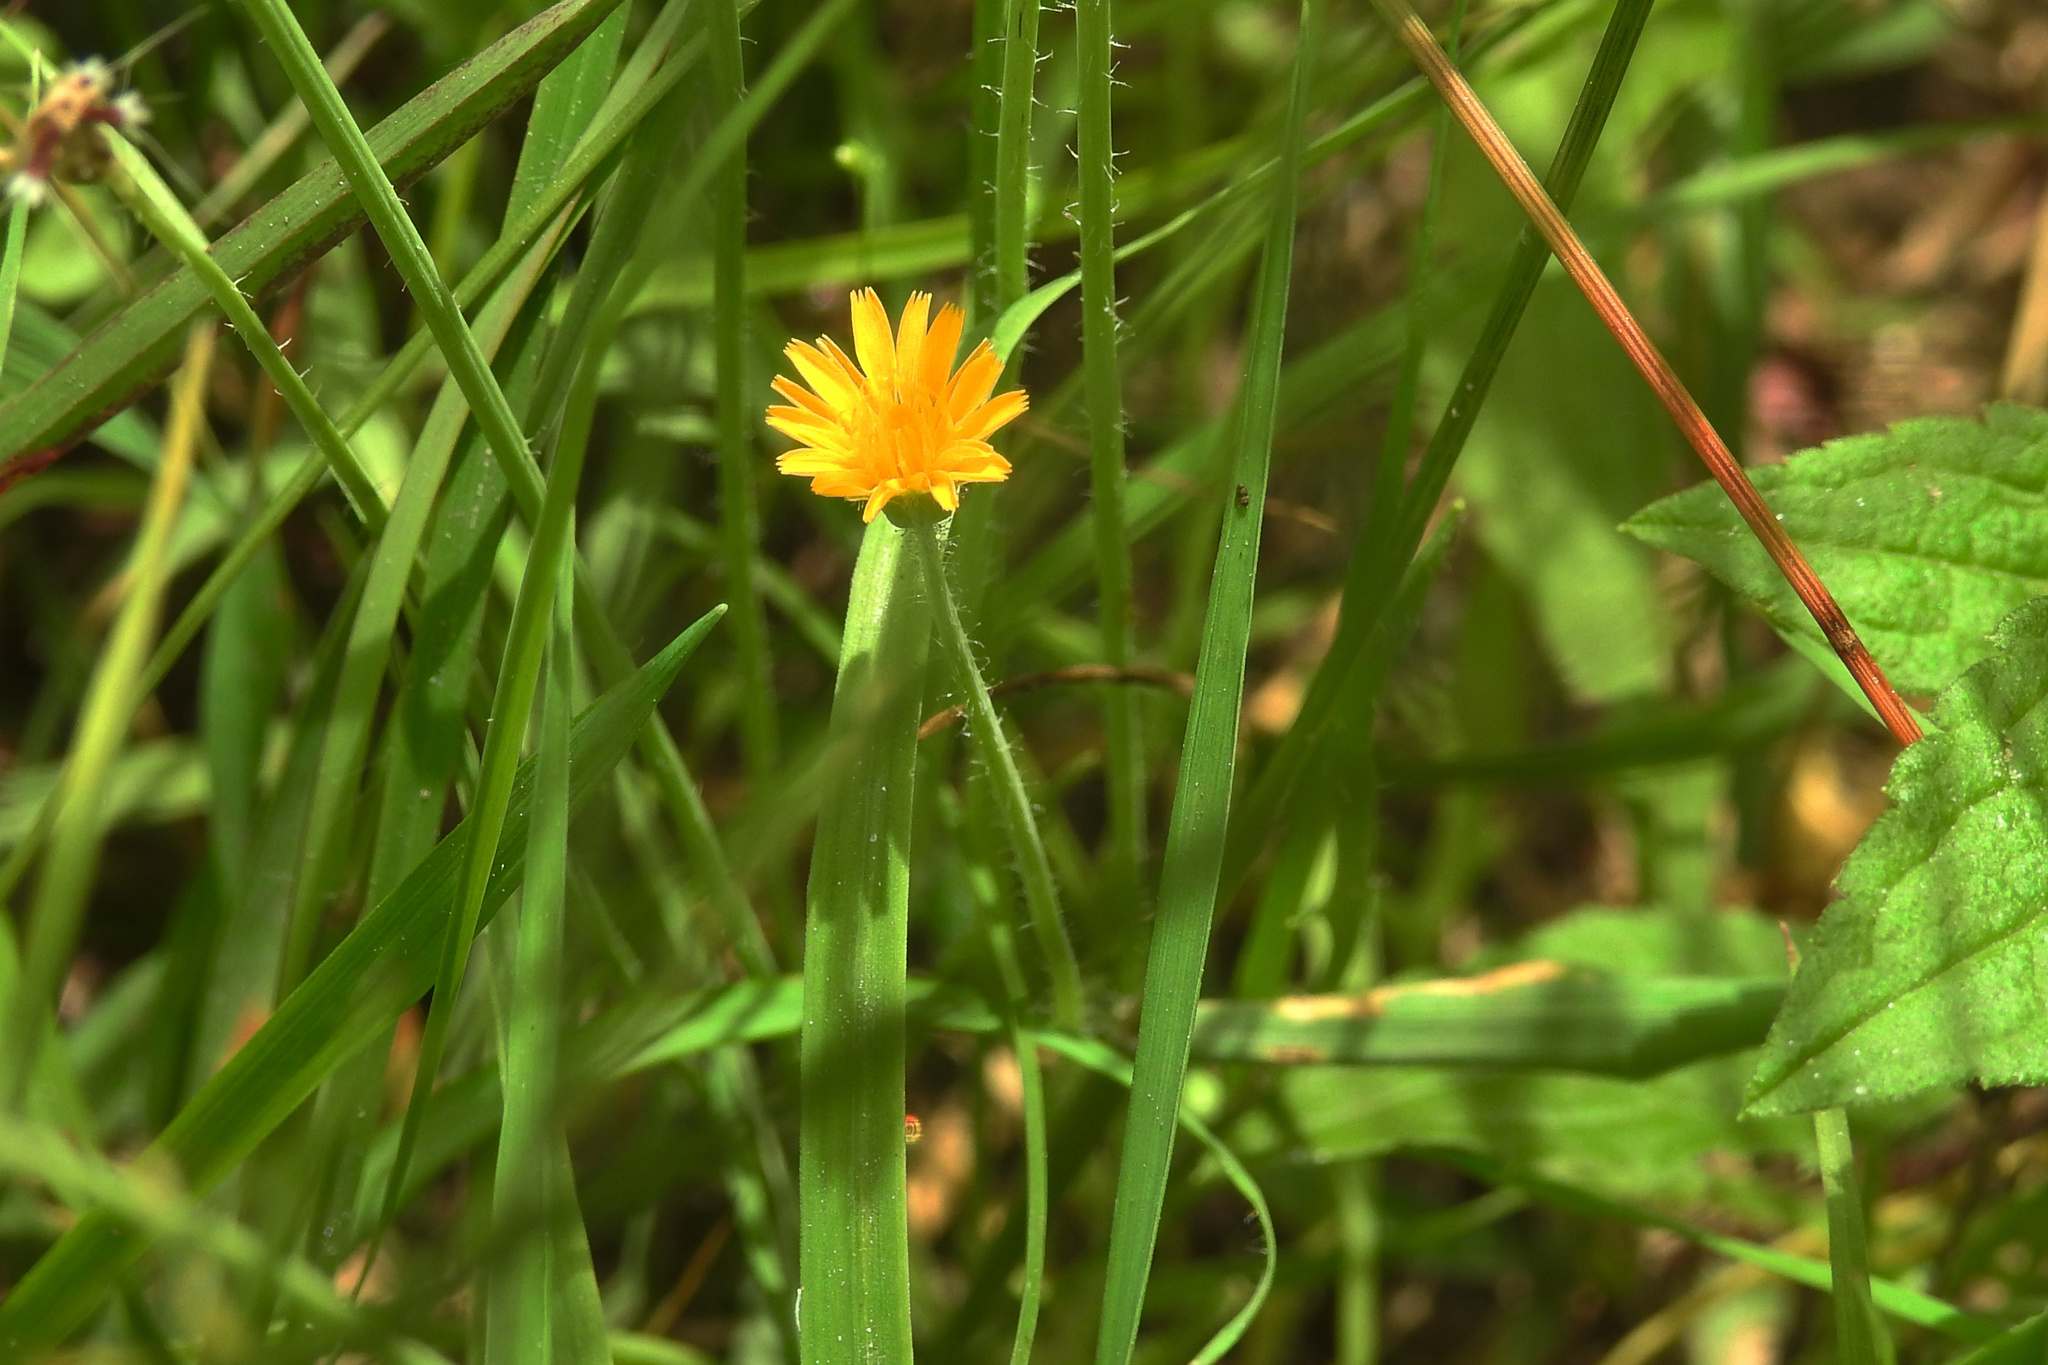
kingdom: Plantae
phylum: Tracheophyta
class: Magnoliopsida
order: Asterales
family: Asteraceae
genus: Krigia
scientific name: Krigia virginica
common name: Virginia dwarf-dandelion
